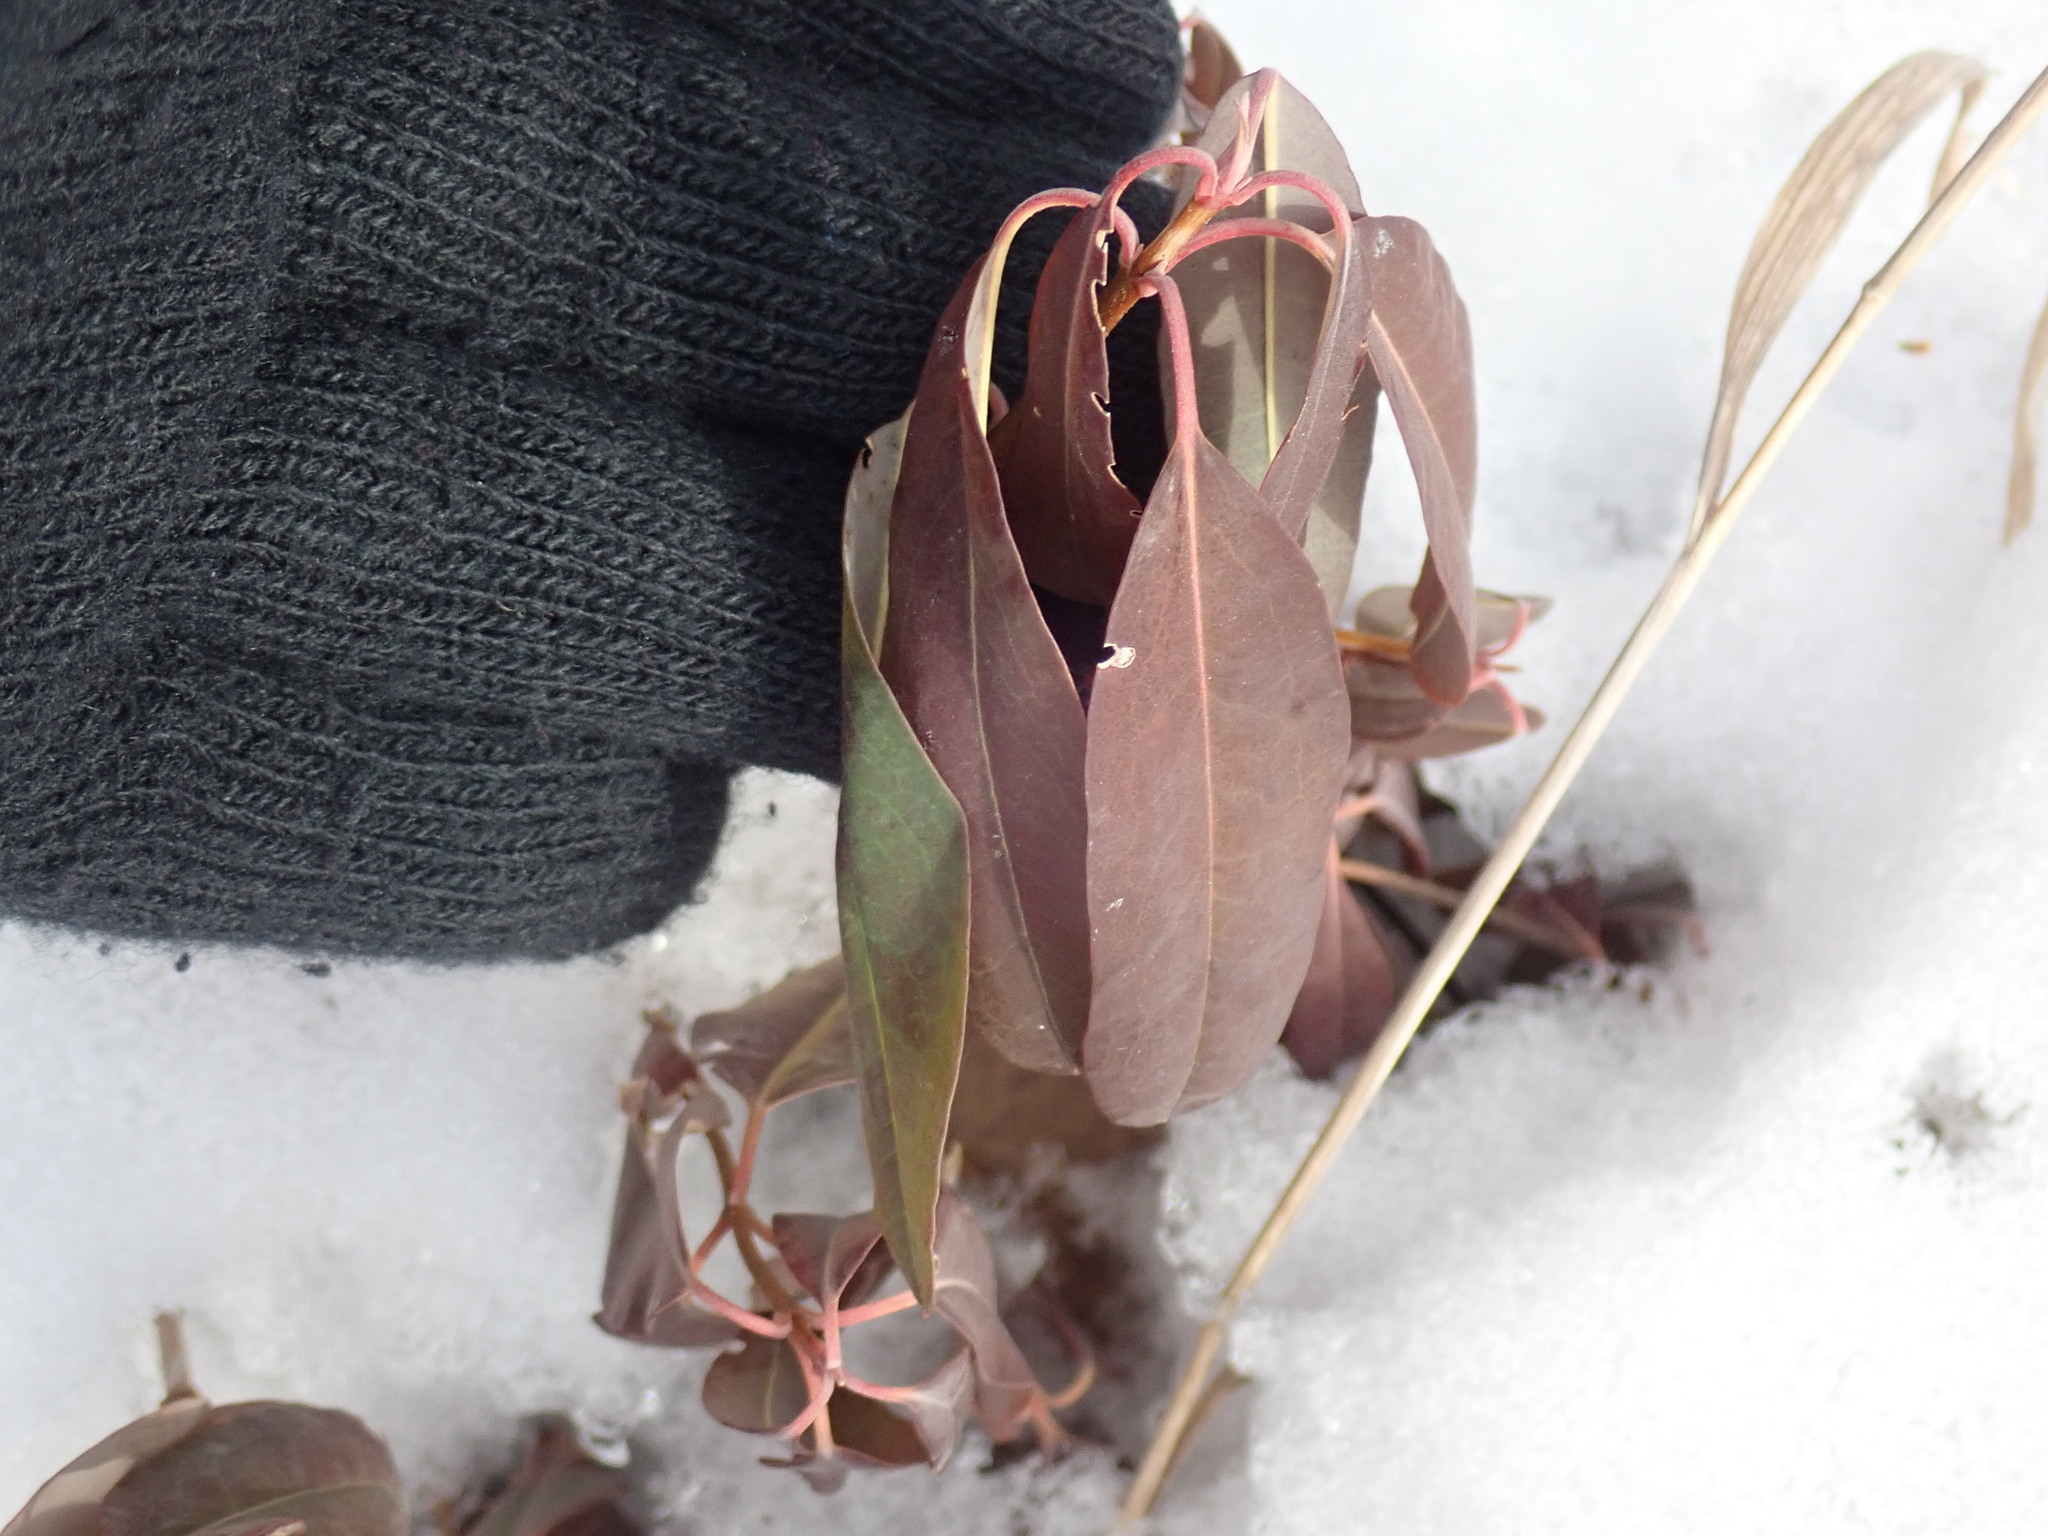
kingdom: Plantae
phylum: Tracheophyta
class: Magnoliopsida
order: Ericales
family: Ericaceae
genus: Kalmia
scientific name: Kalmia angustifolia
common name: Sheep-laurel
